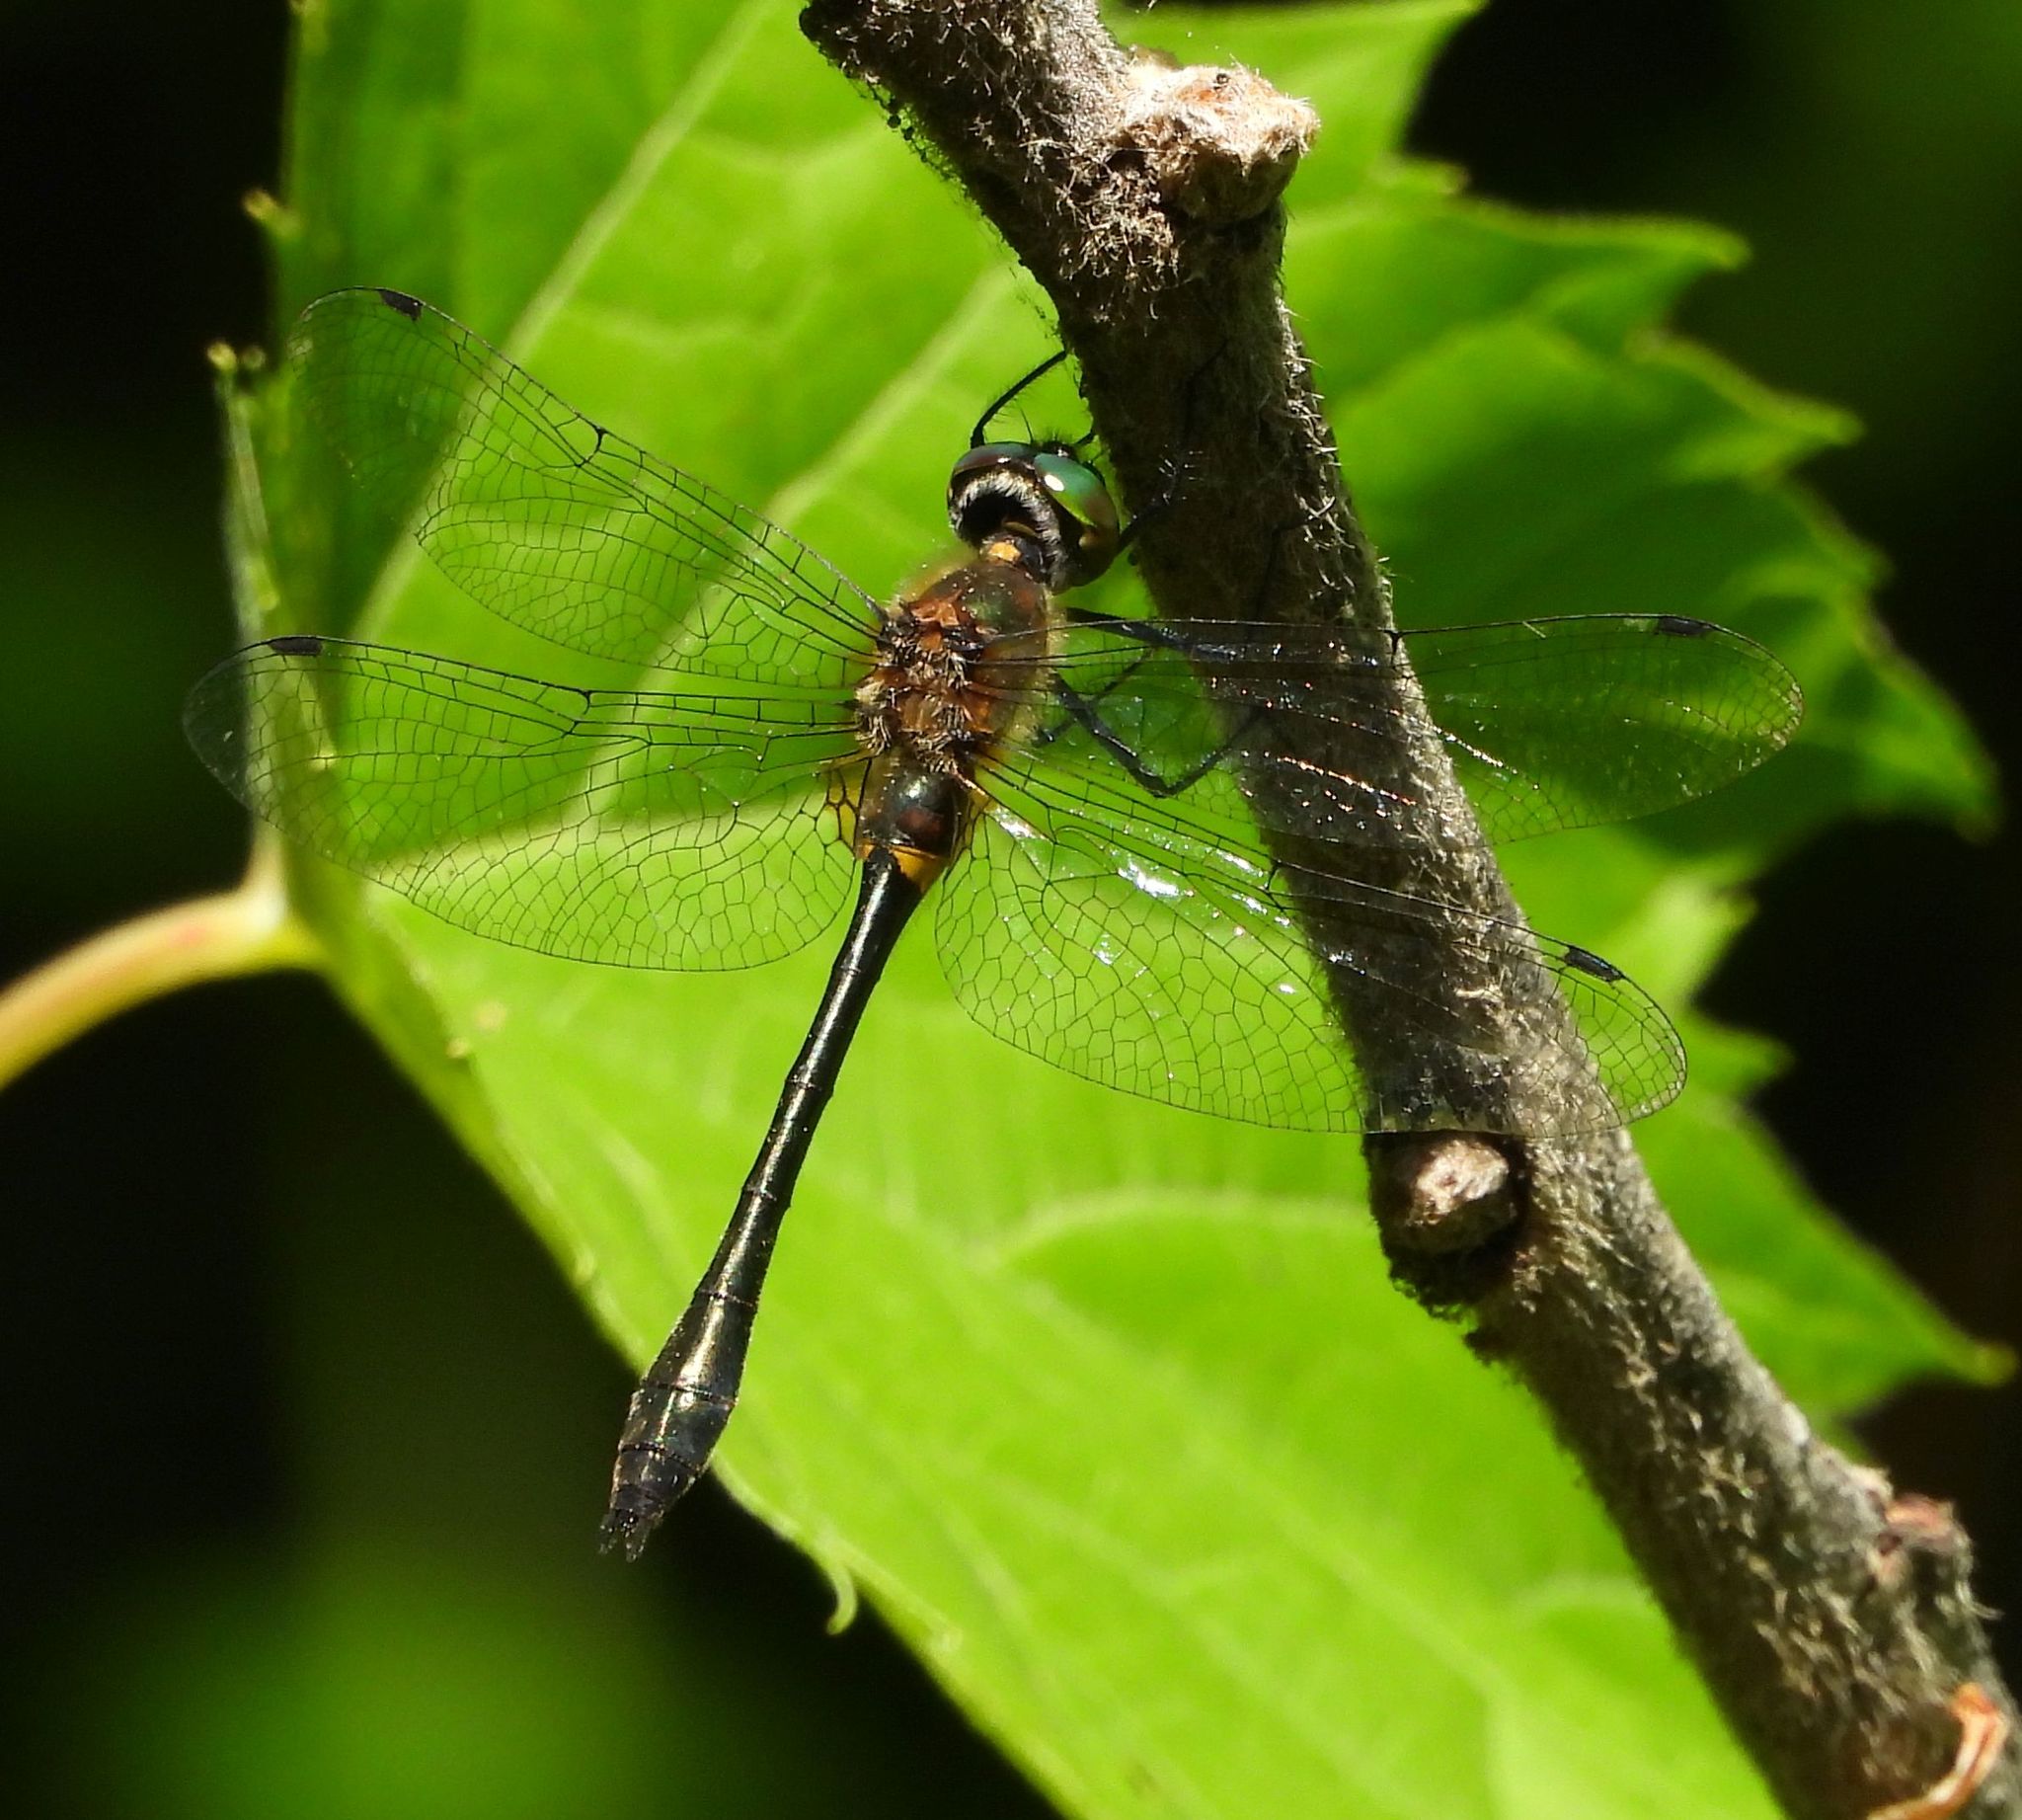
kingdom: Animalia
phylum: Arthropoda
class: Insecta
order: Odonata
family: Corduliidae
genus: Dorocordulia
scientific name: Dorocordulia libera
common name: Racket-tailed emerald
